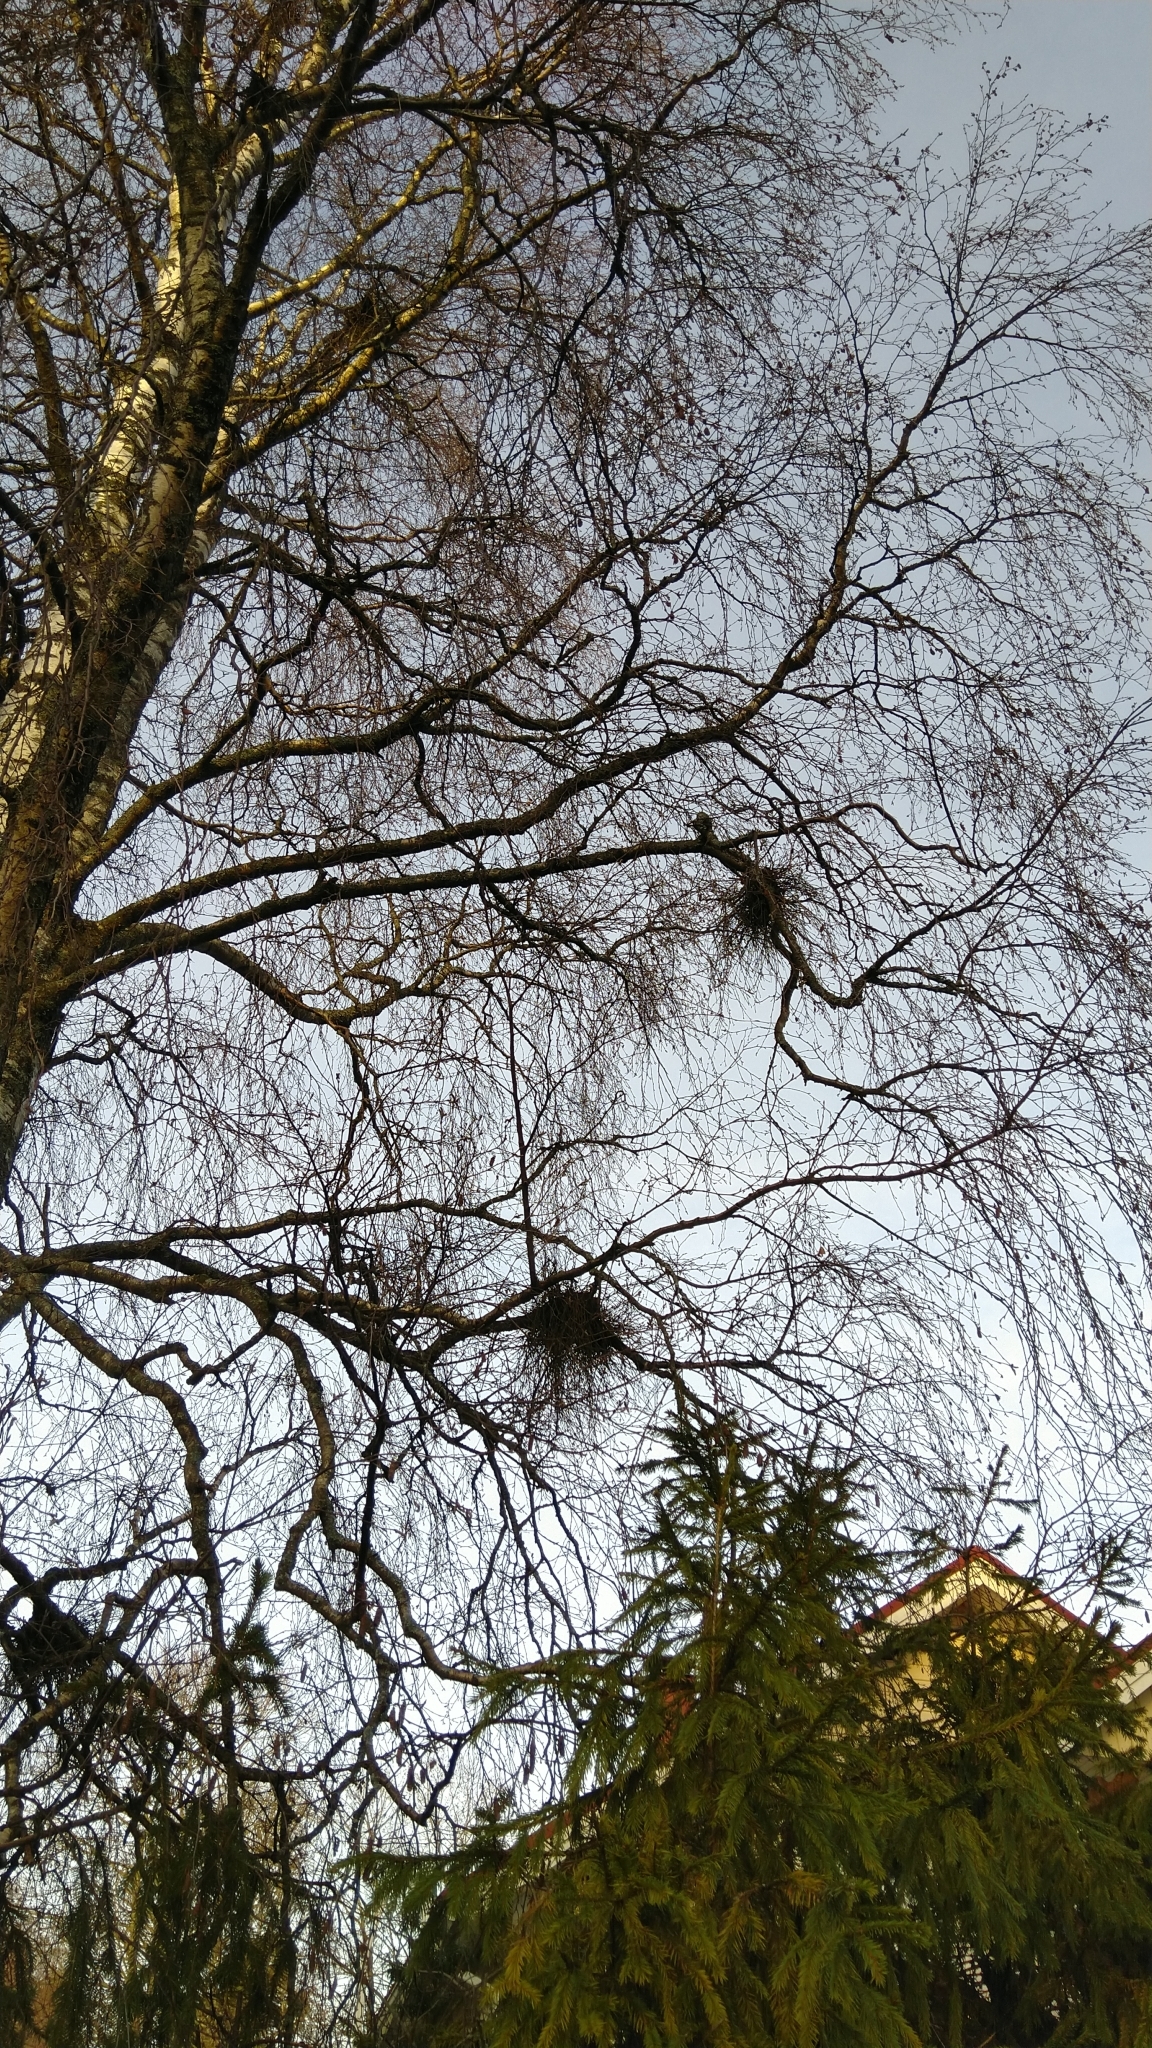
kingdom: Fungi
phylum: Ascomycota
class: Taphrinomycetes
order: Taphrinales
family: Taphrinaceae
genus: Taphrina
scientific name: Taphrina betulina
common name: Birch besom
